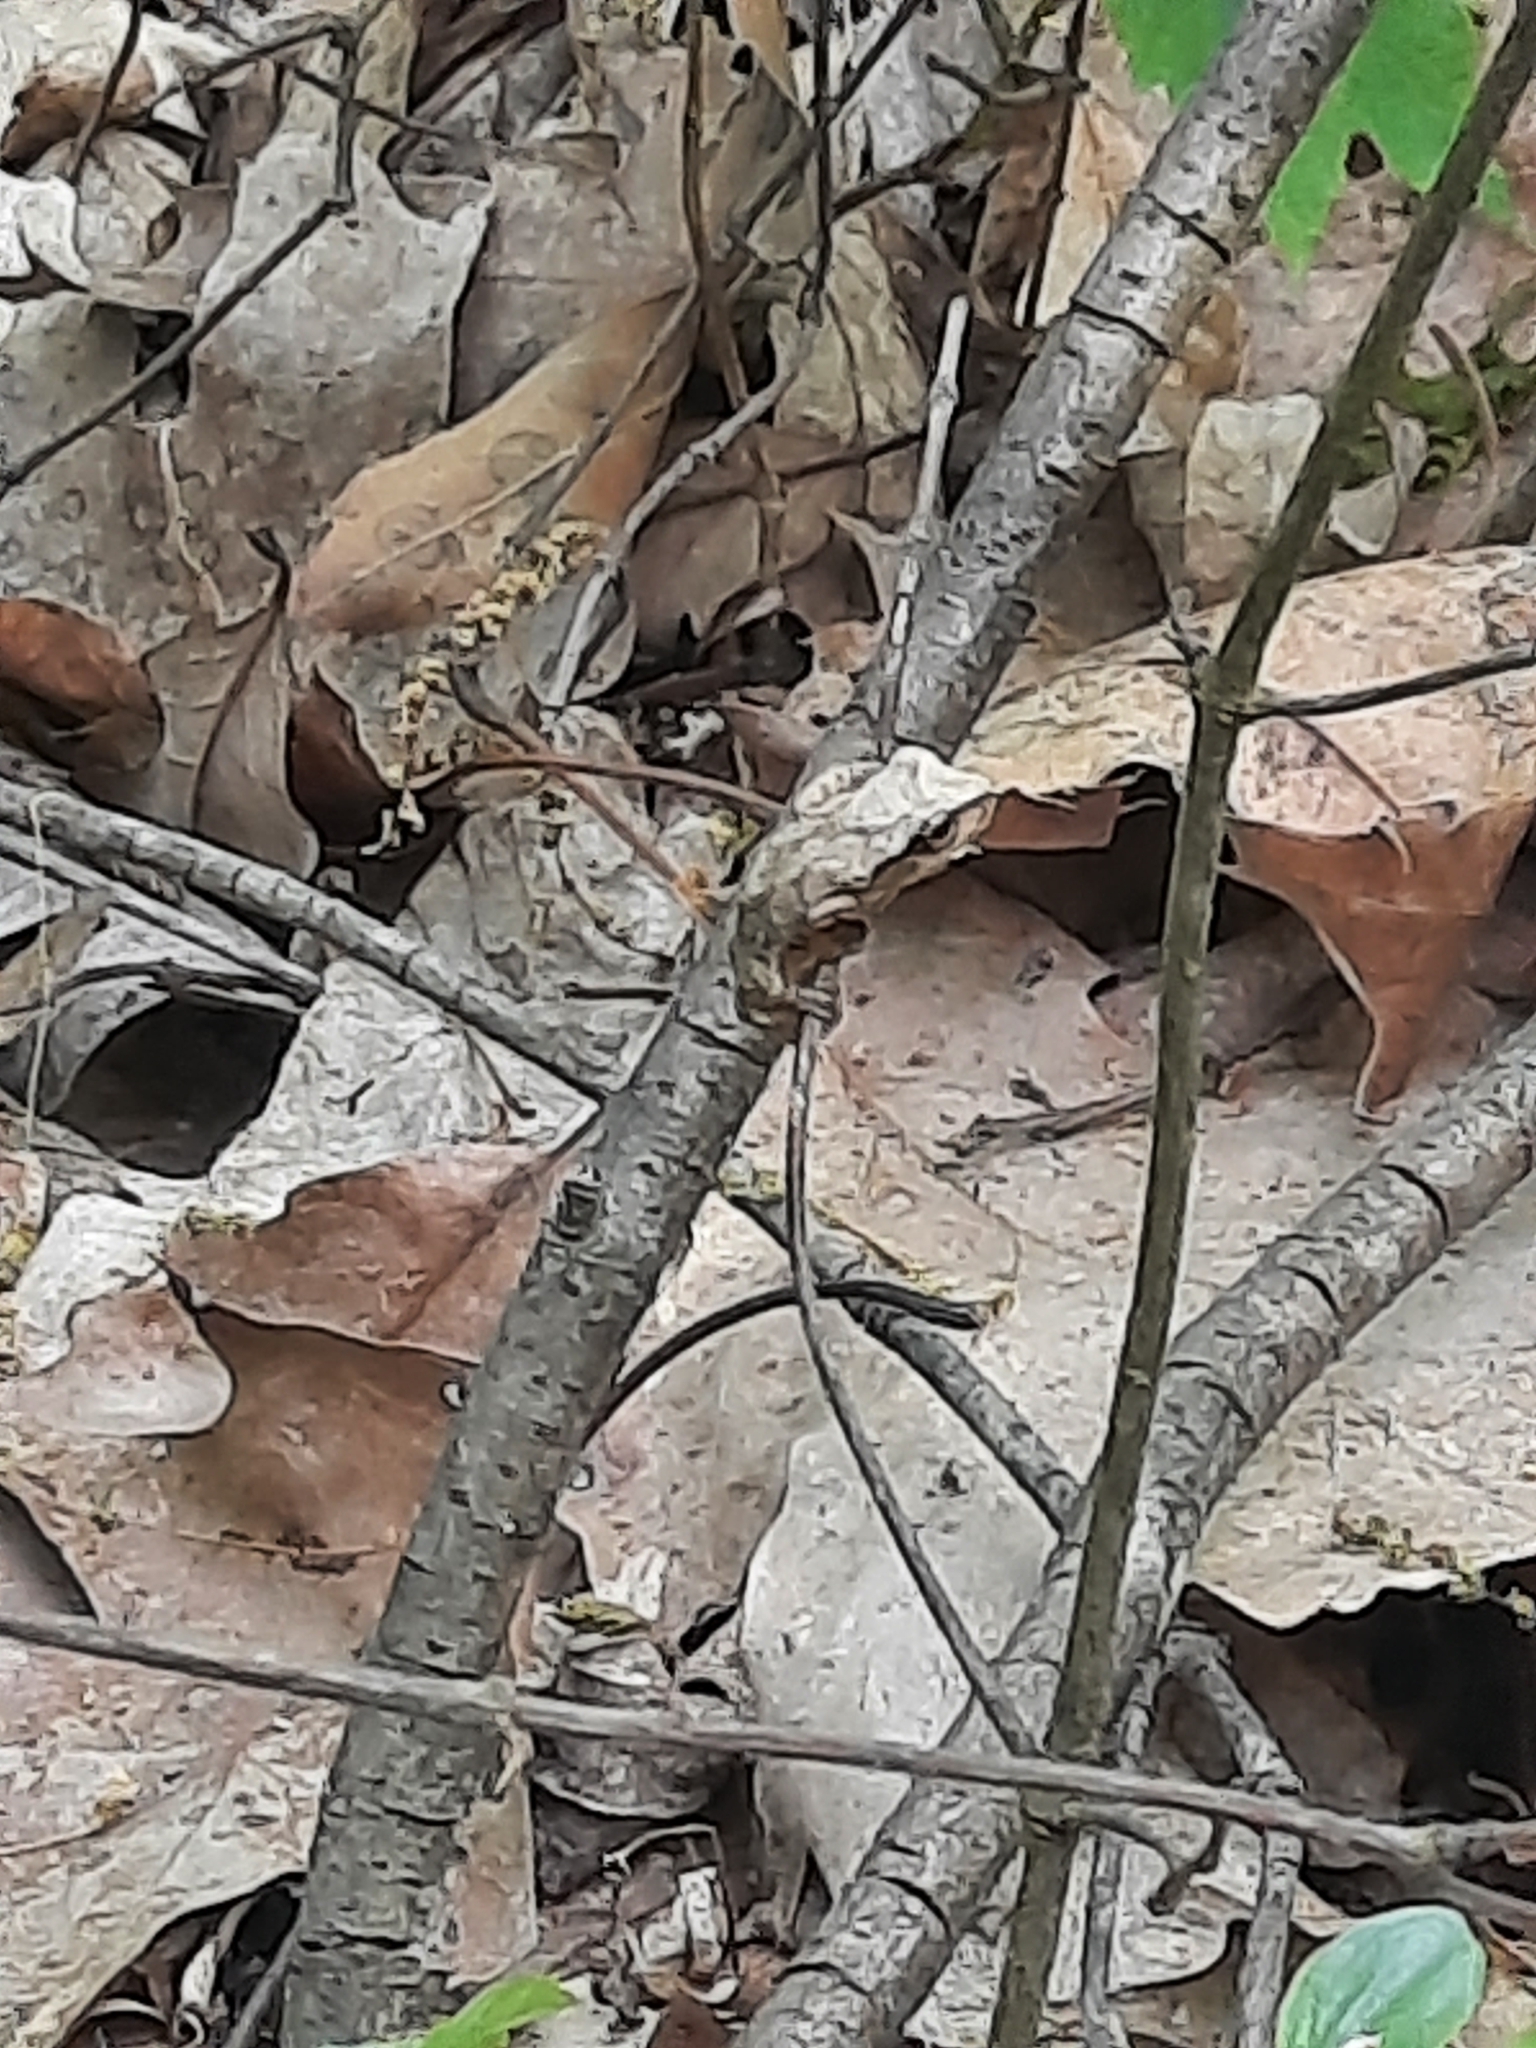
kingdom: Animalia
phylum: Chordata
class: Amphibia
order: Anura
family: Hylidae
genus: Pseudacris
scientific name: Pseudacris crucifer
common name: Spring peeper
